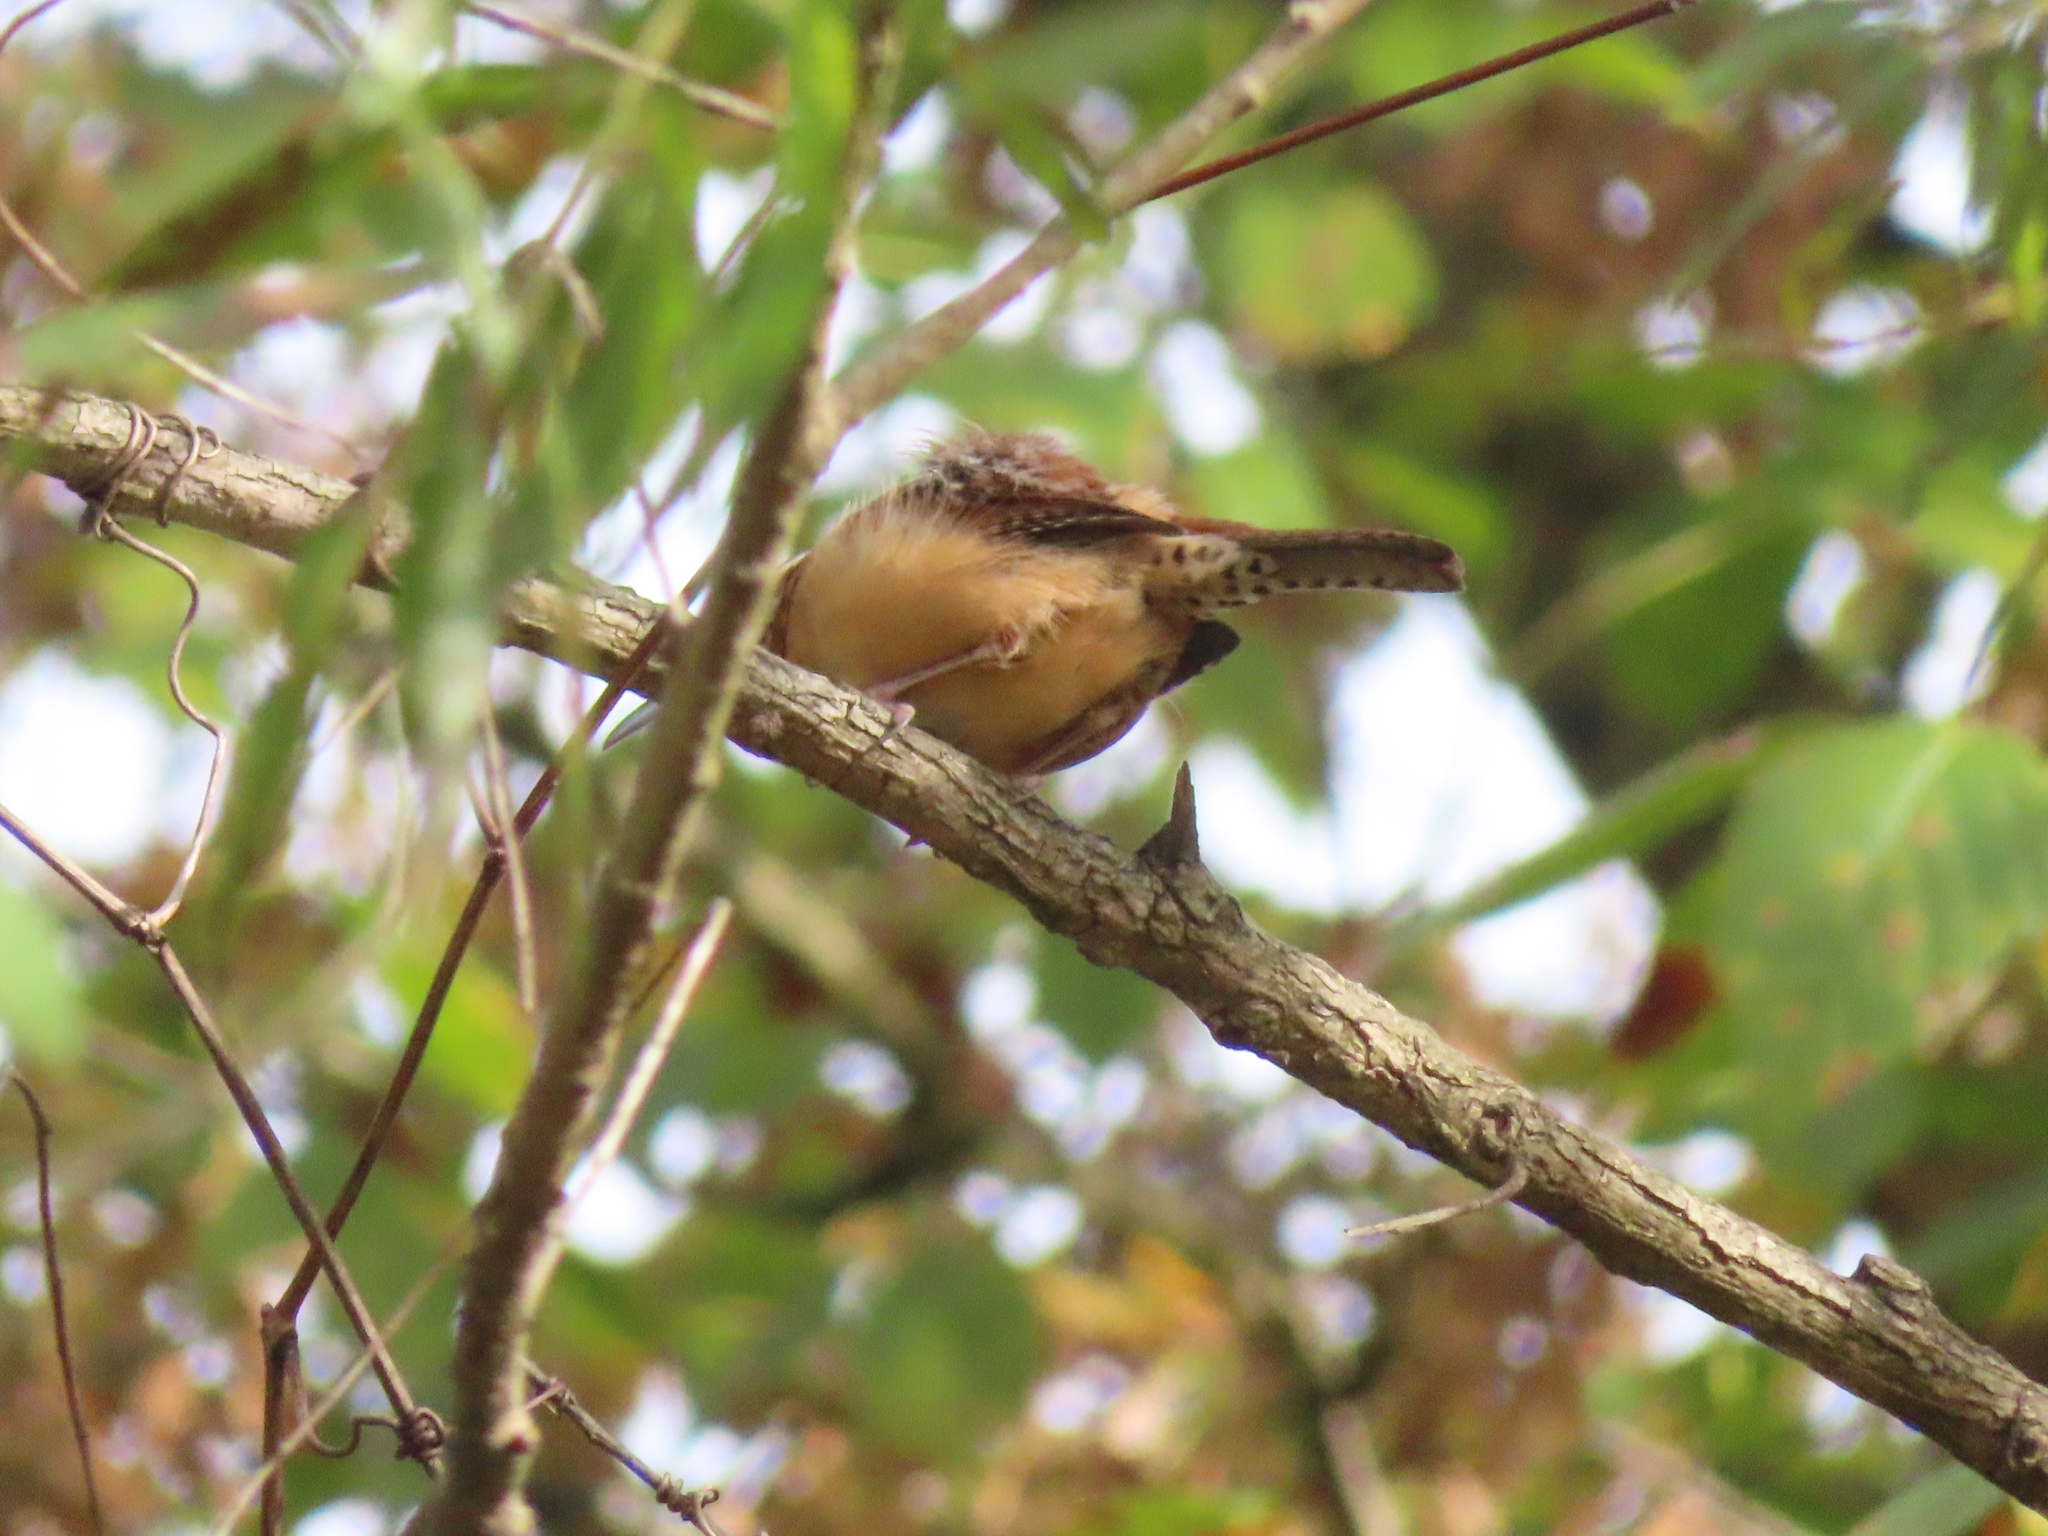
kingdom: Animalia
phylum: Chordata
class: Aves
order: Passeriformes
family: Troglodytidae
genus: Thryothorus
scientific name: Thryothorus ludovicianus
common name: Carolina wren
